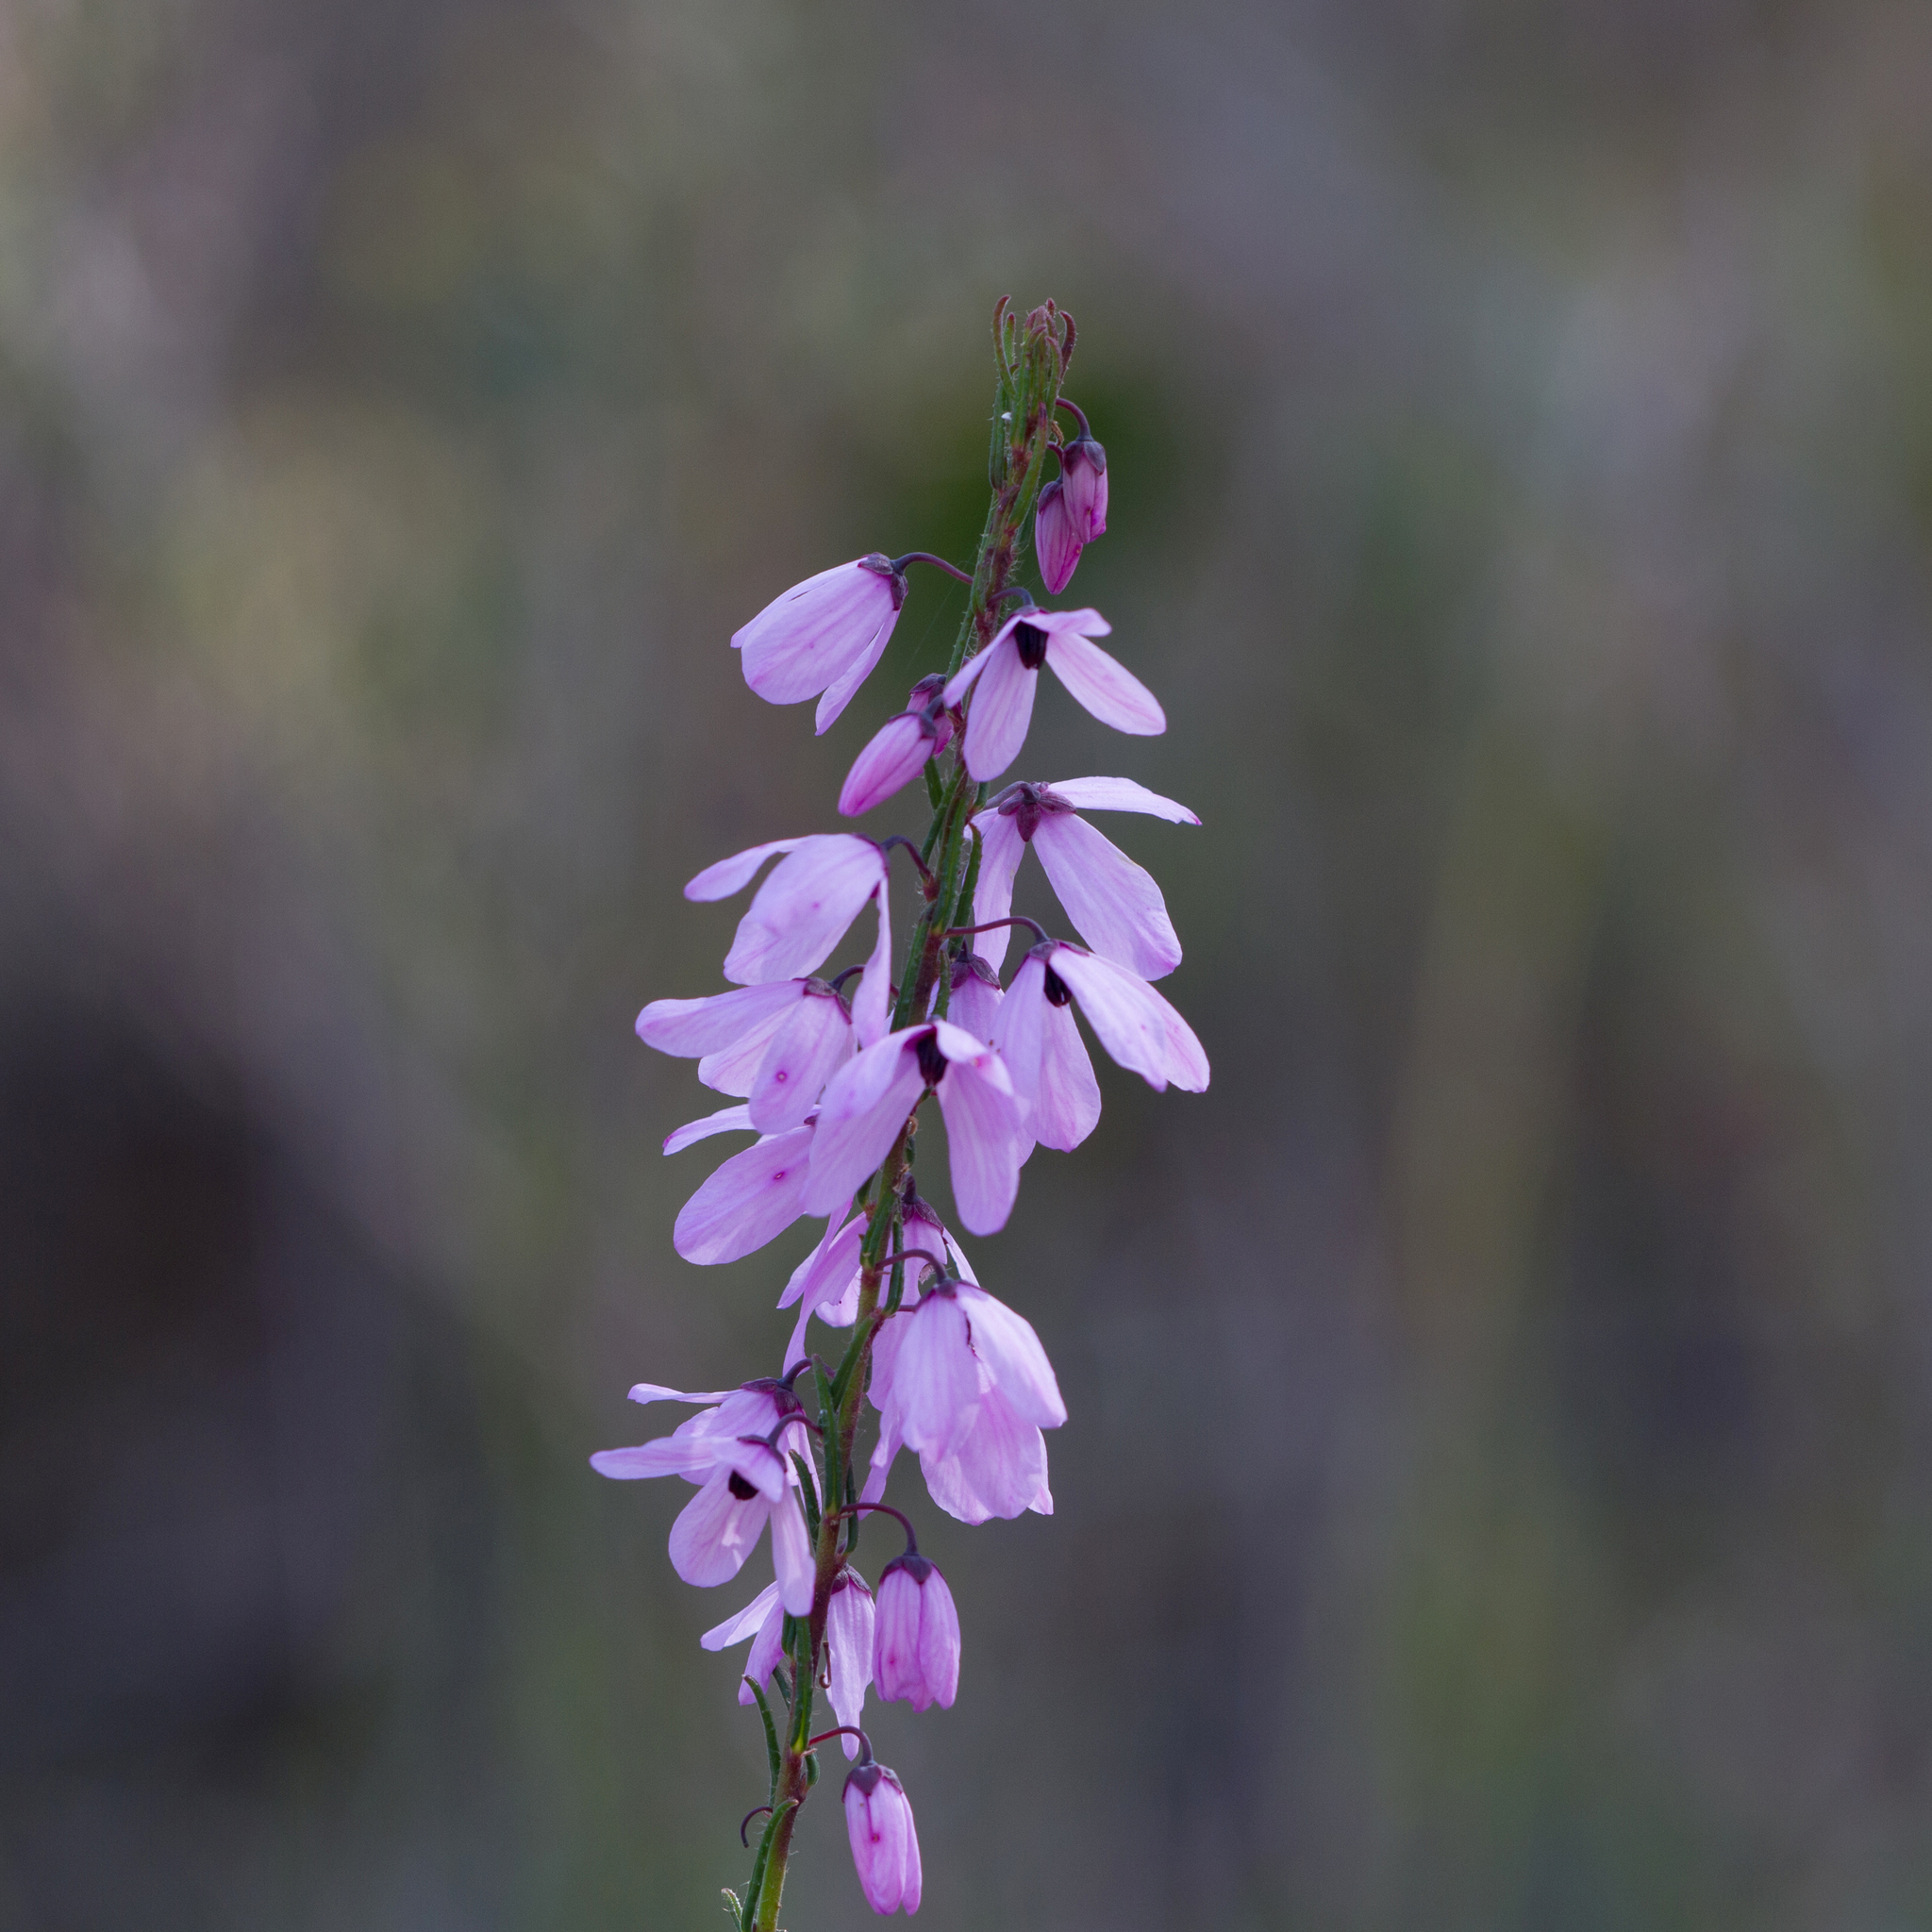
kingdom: Plantae
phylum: Tracheophyta
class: Magnoliopsida
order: Oxalidales
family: Elaeocarpaceae
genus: Tetratheca
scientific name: Tetratheca pilosa
